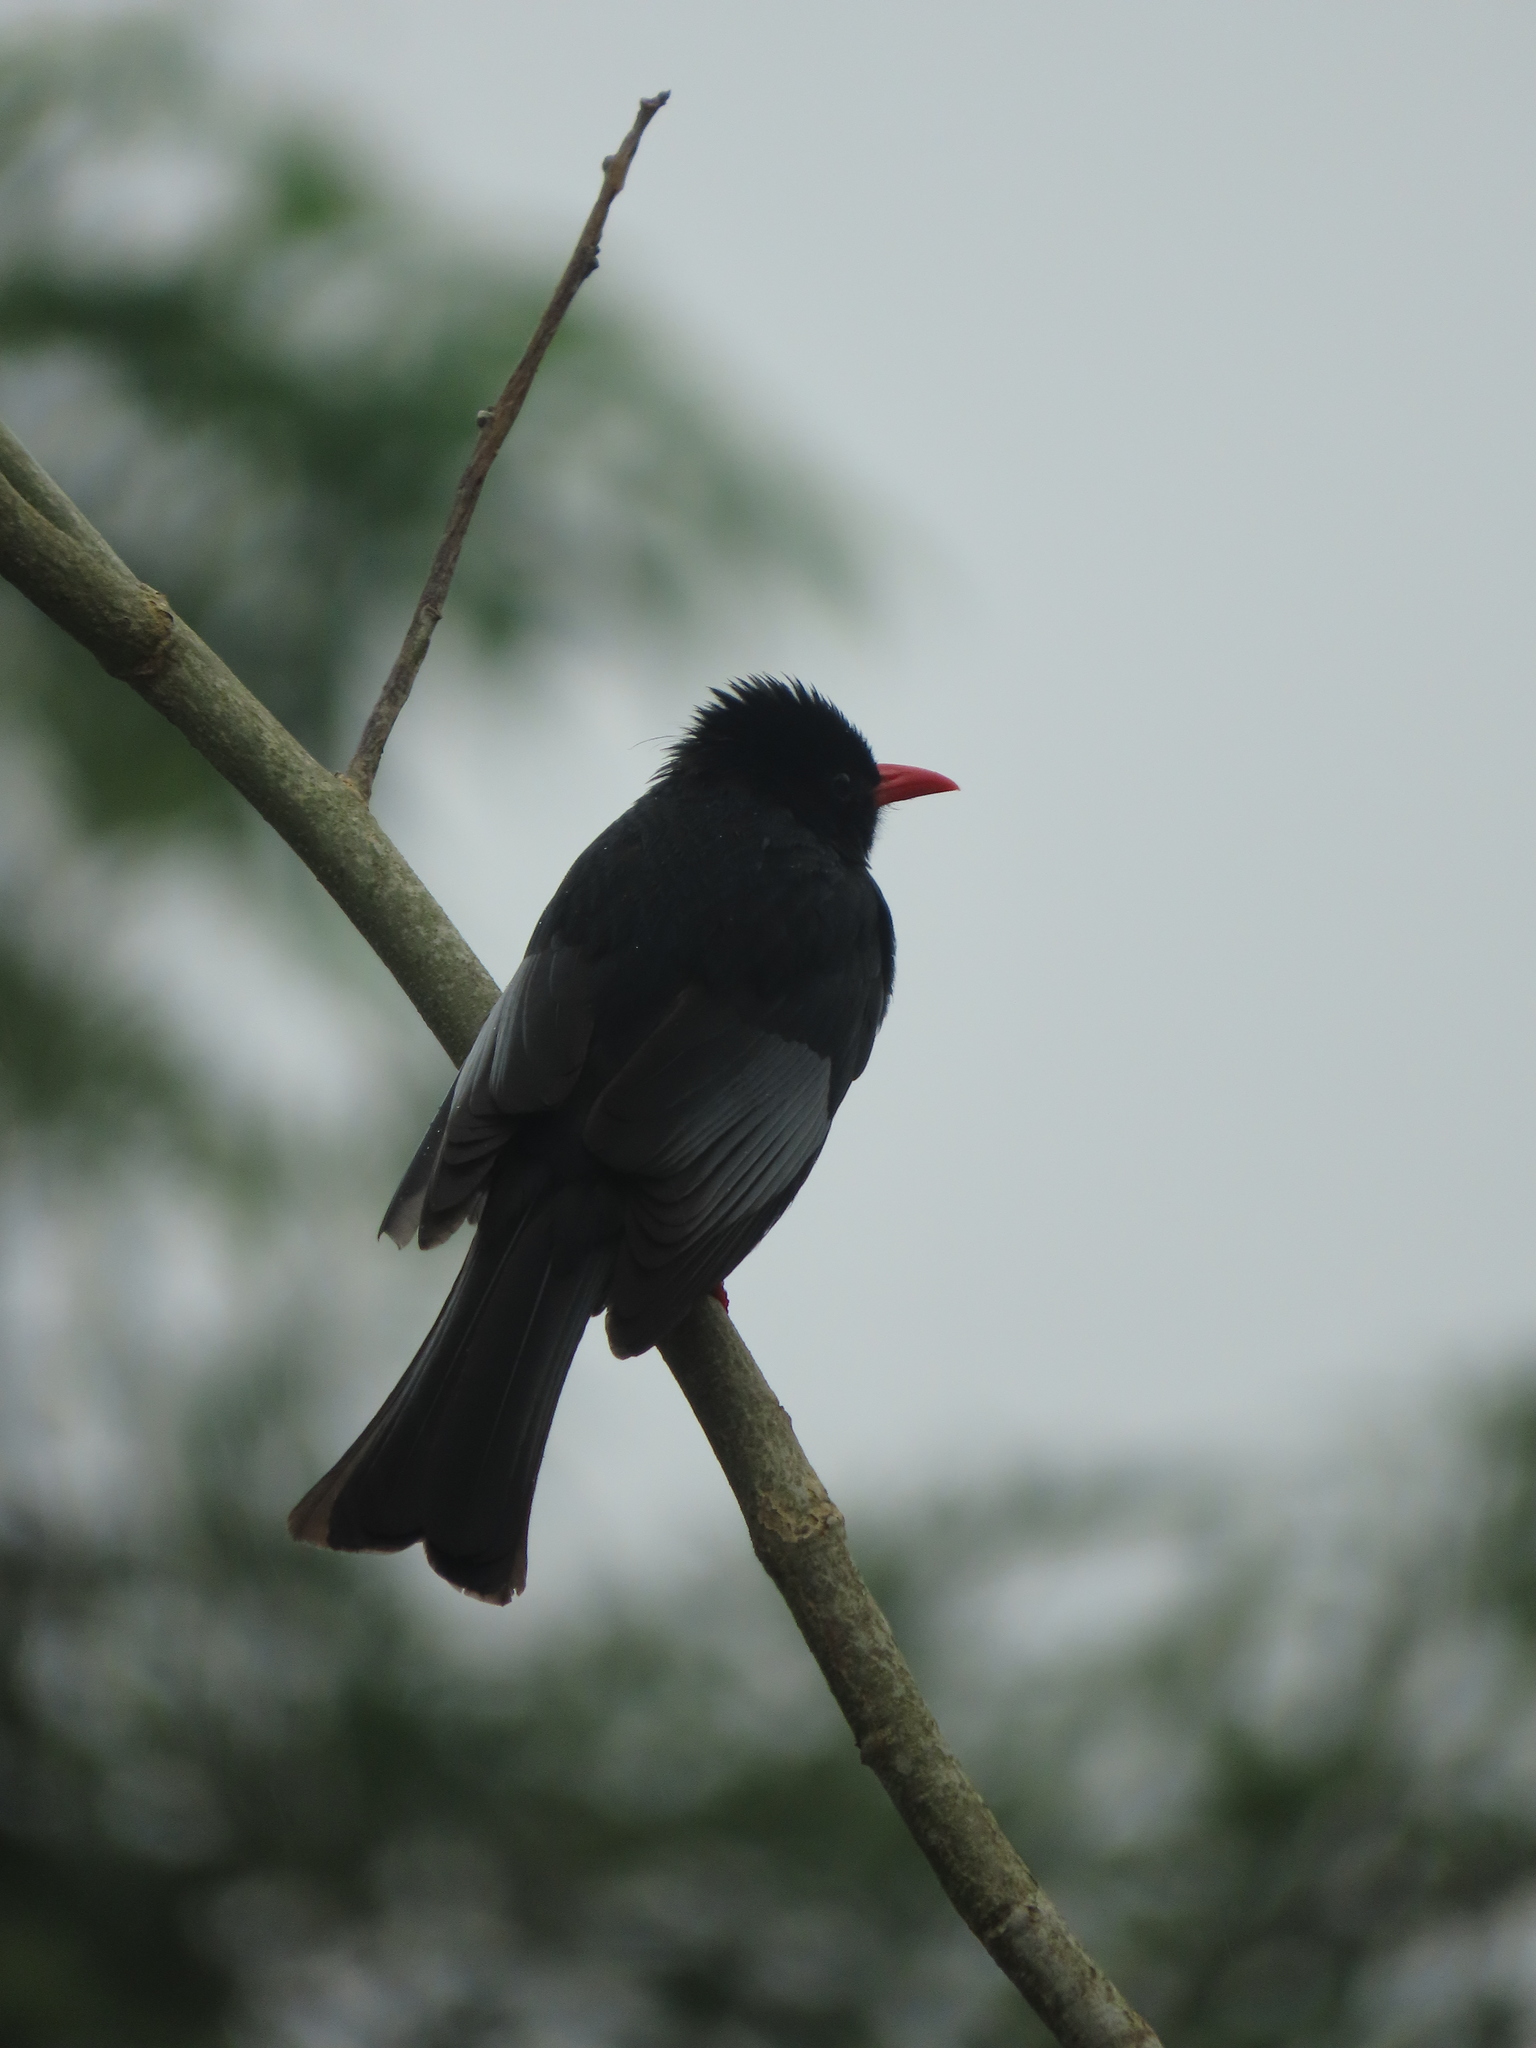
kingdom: Animalia
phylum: Chordata
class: Aves
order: Passeriformes
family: Pycnonotidae
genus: Hypsipetes
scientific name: Hypsipetes leucocephalus
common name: Black bulbul
